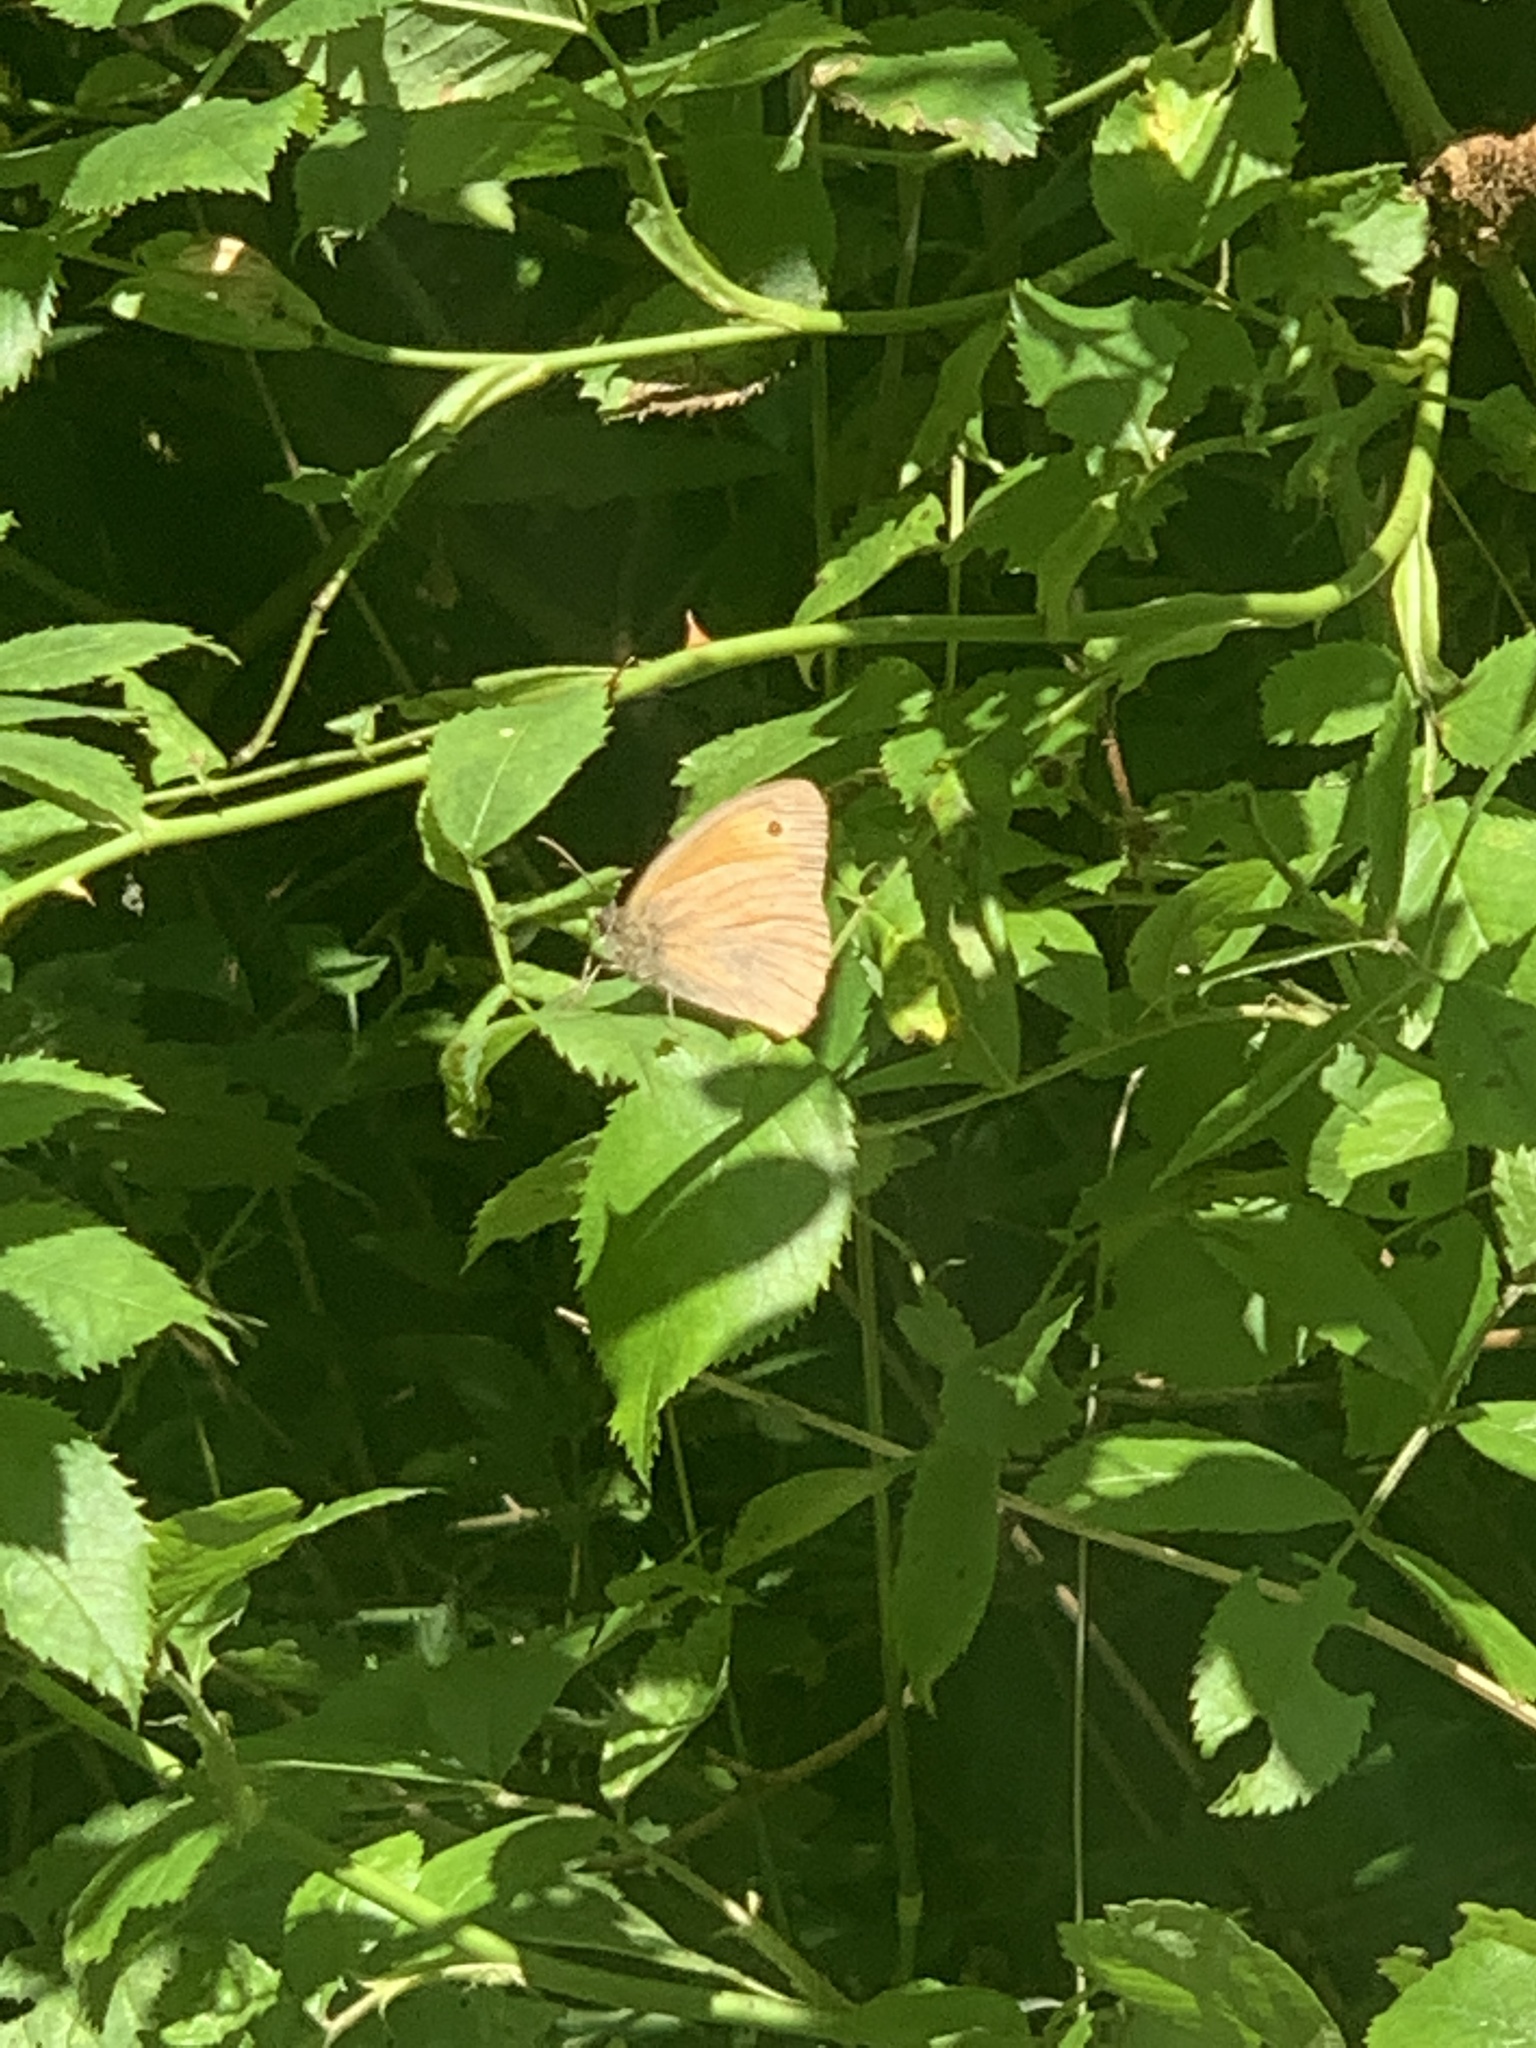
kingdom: Animalia
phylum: Arthropoda
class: Insecta
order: Lepidoptera
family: Nymphalidae
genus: Maniola
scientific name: Maniola jurtina
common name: Meadow brown
